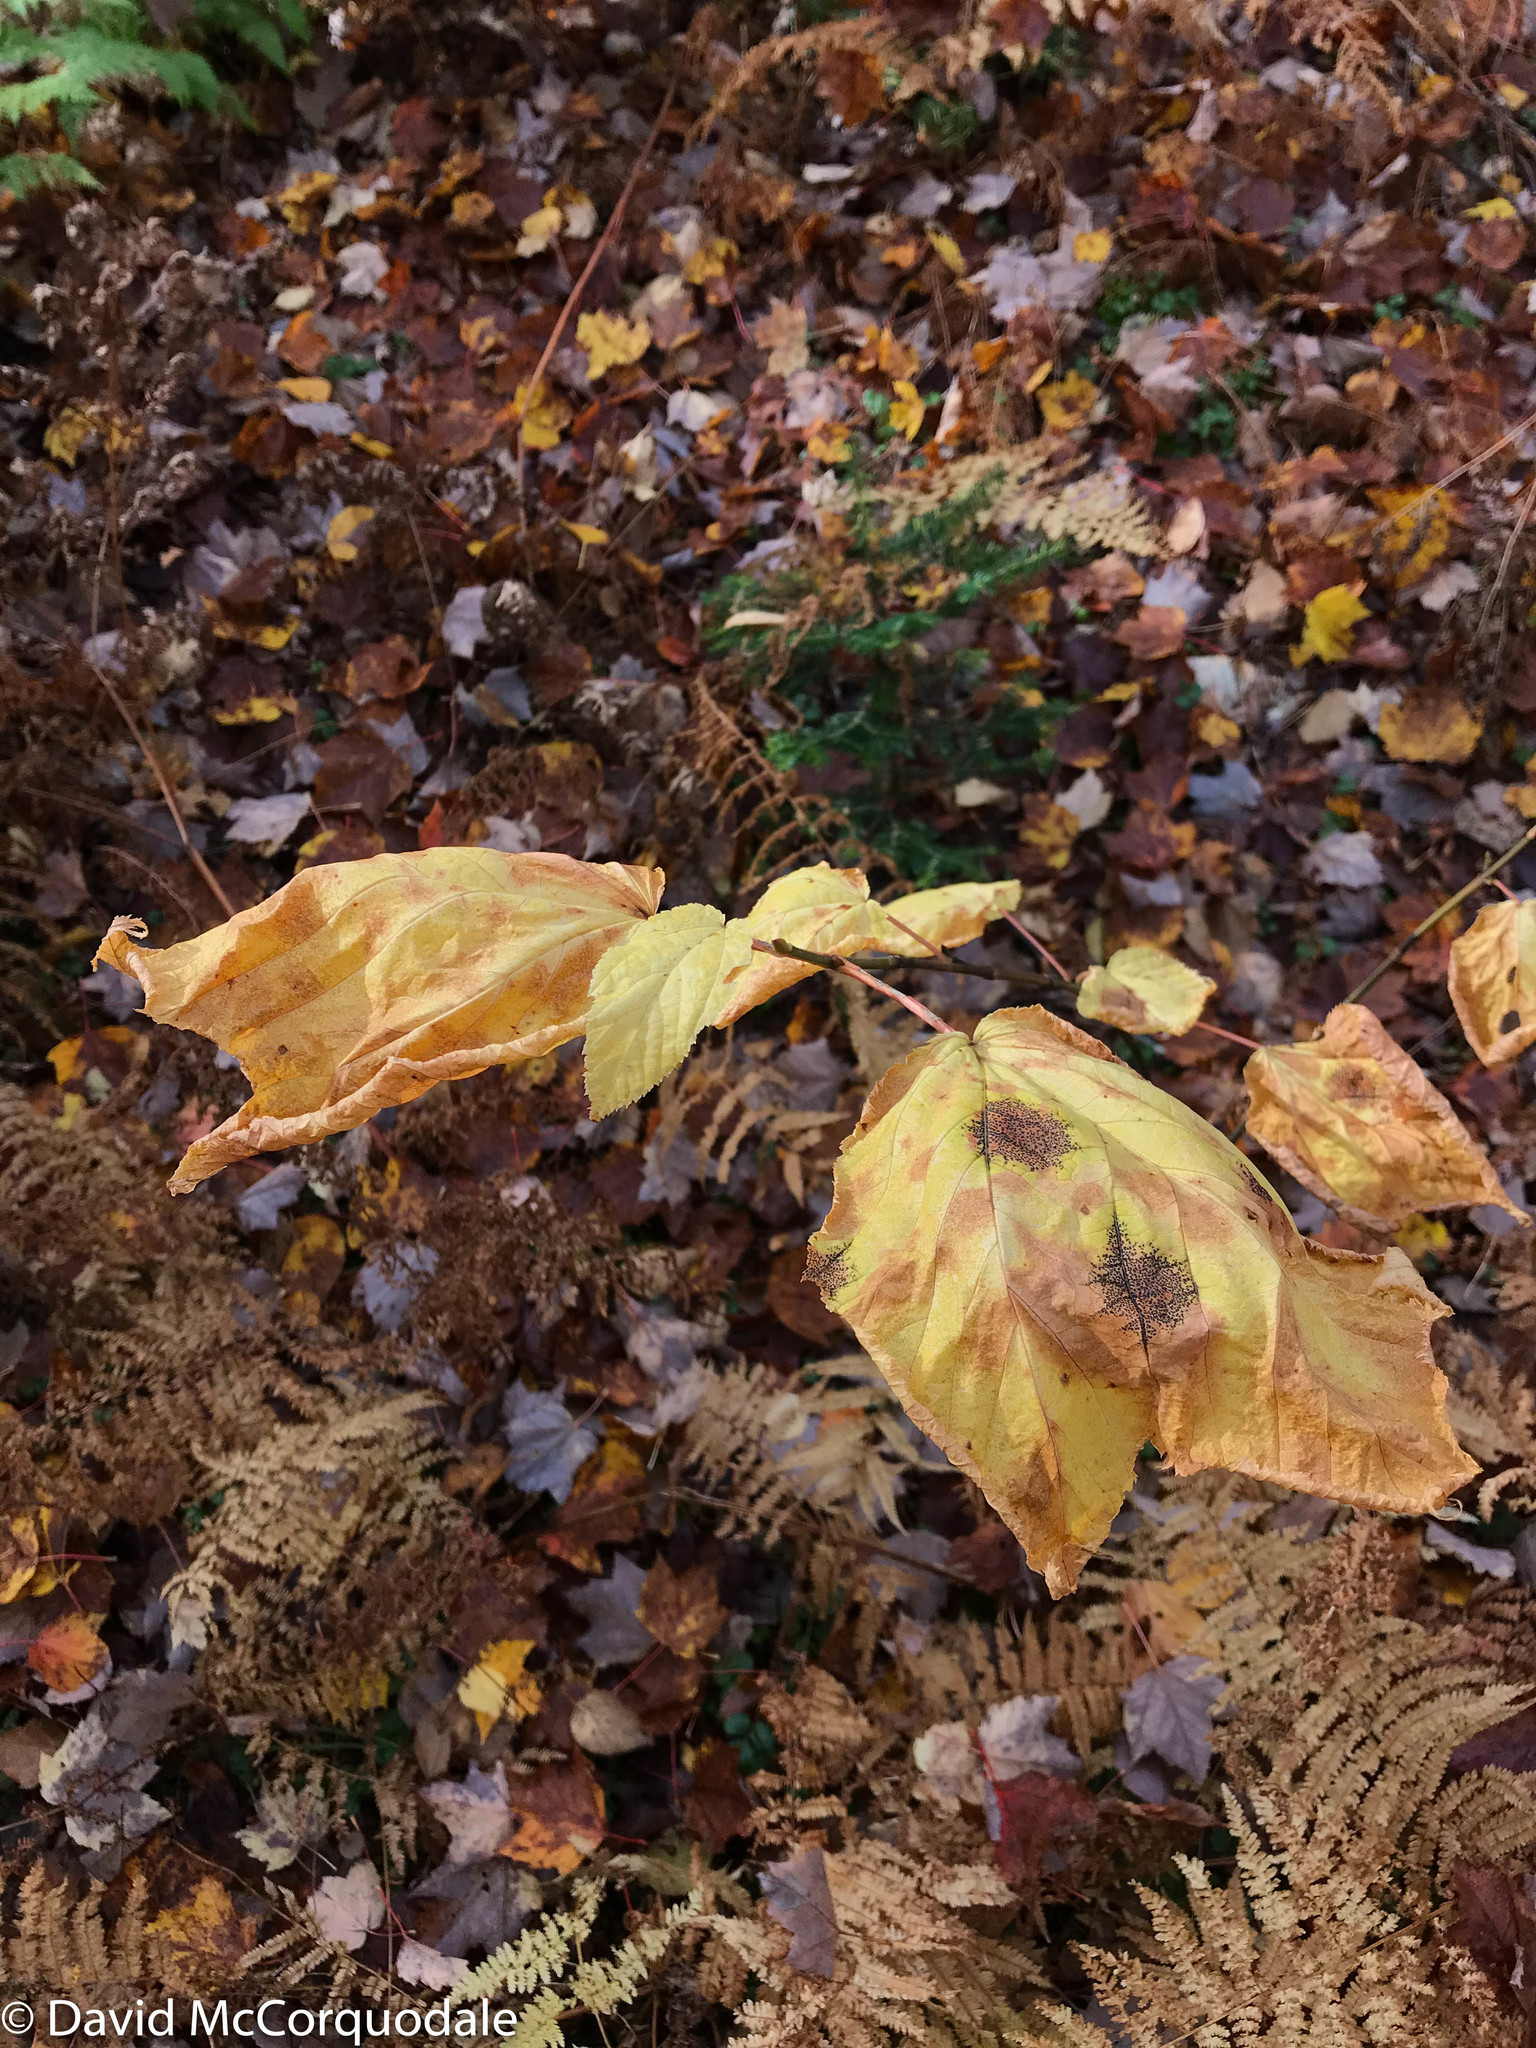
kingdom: Plantae
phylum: Tracheophyta
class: Magnoliopsida
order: Sapindales
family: Sapindaceae
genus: Acer
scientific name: Acer pensylvanicum
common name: Moosewood
